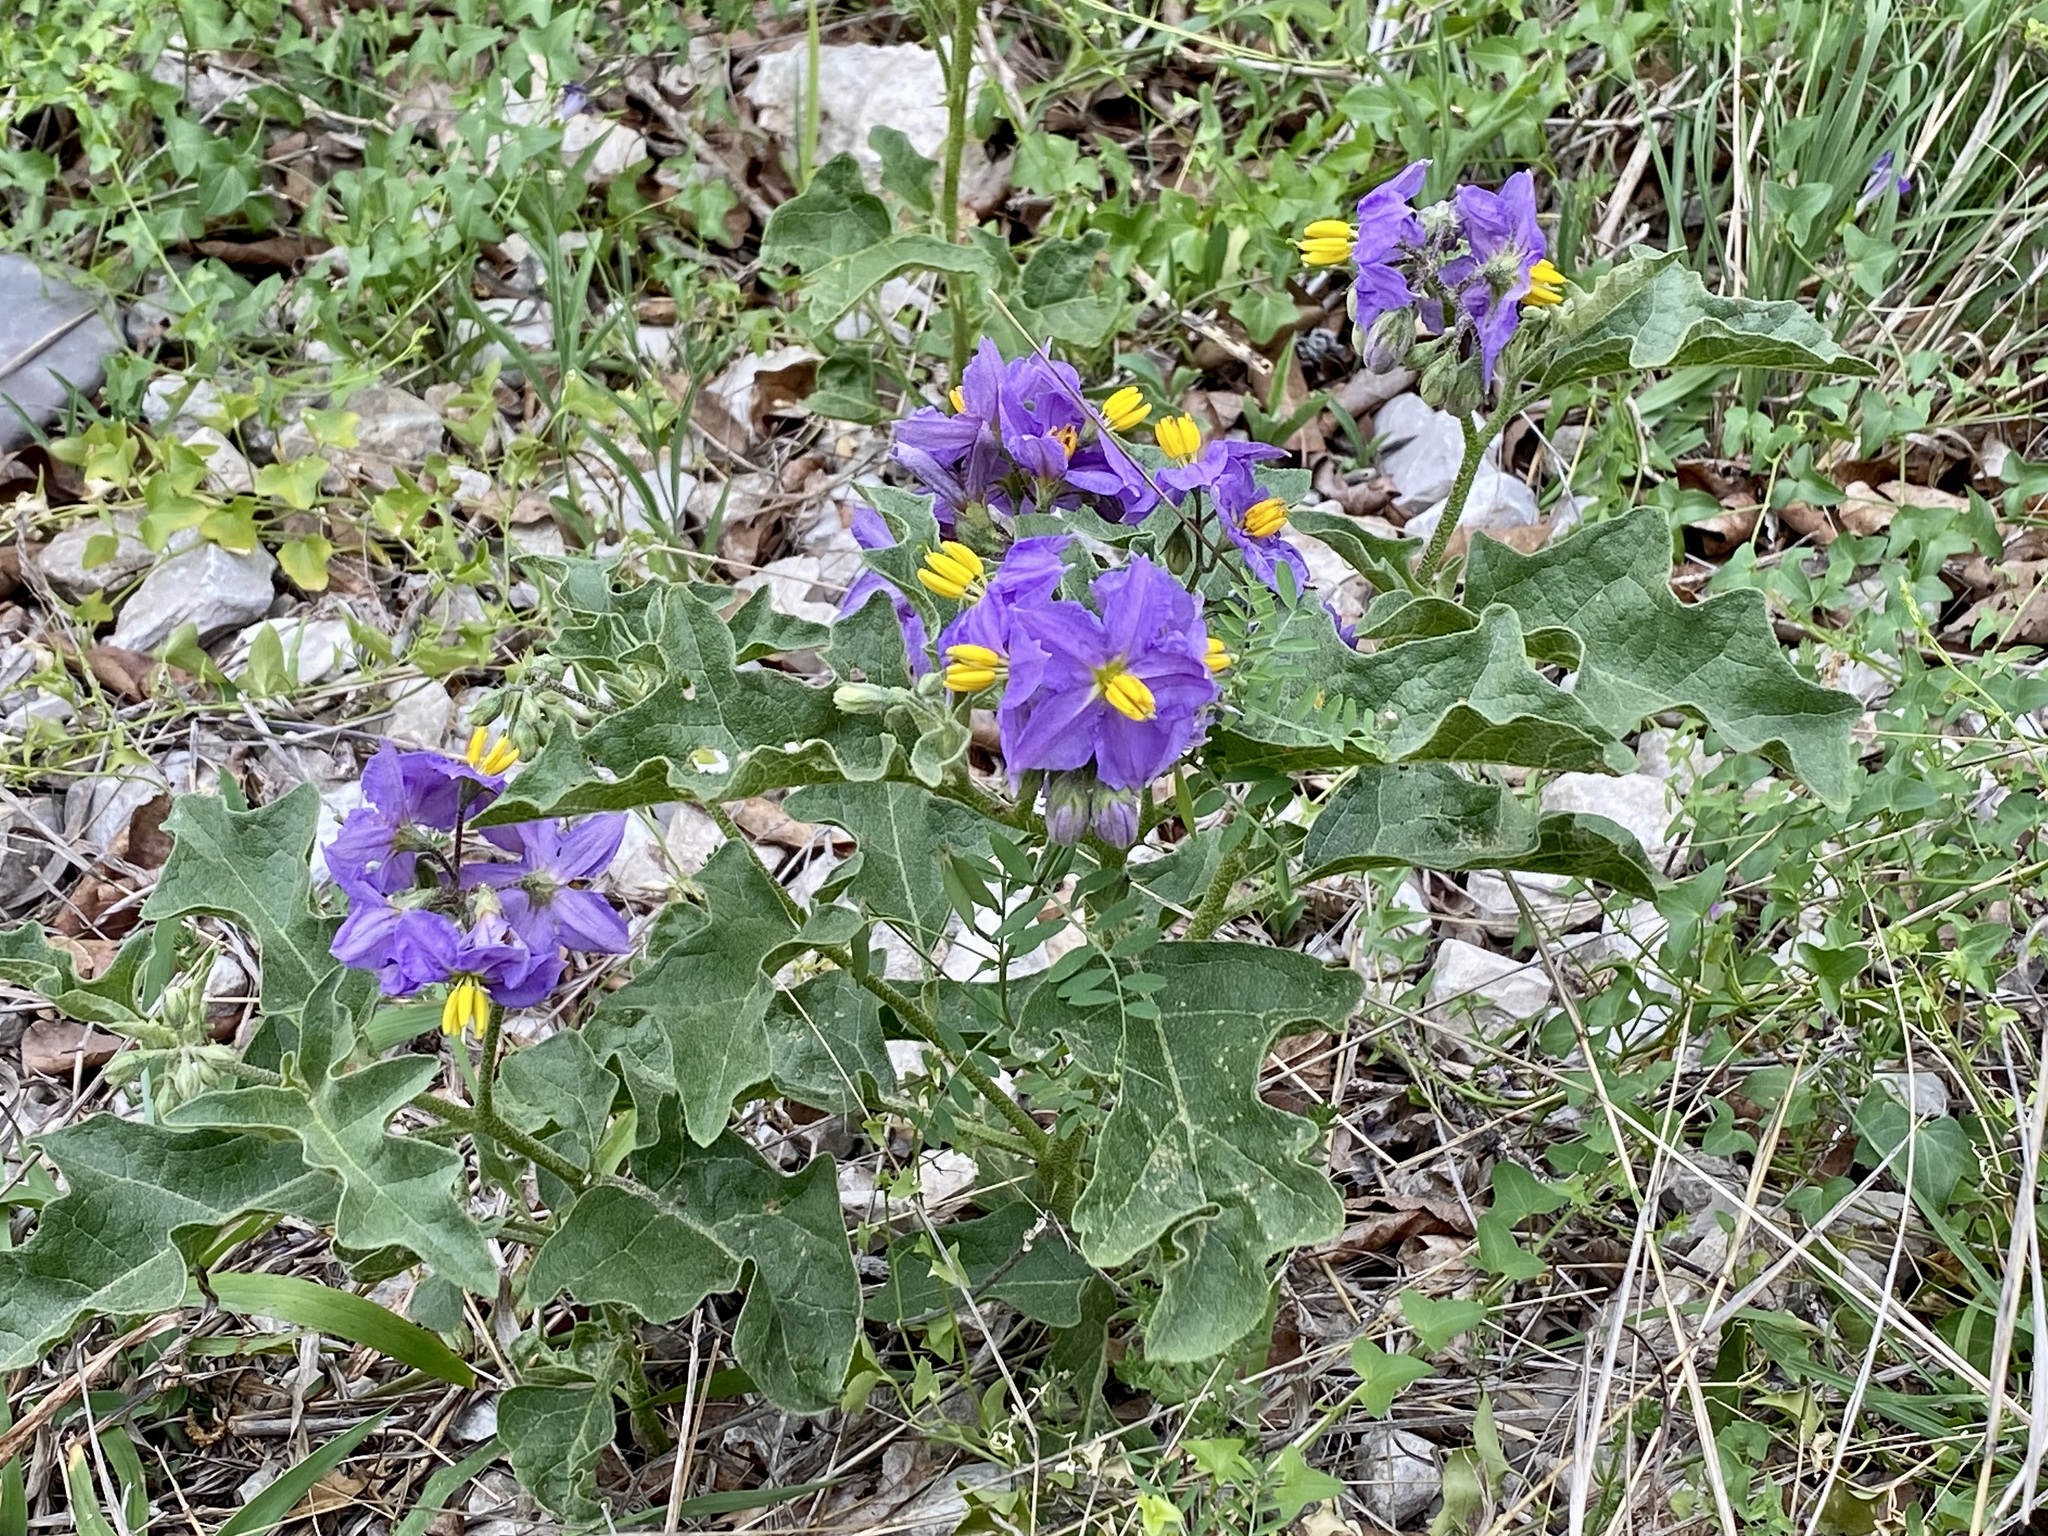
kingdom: Plantae
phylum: Tracheophyta
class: Magnoliopsida
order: Solanales
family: Solanaceae
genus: Solanum
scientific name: Solanum dimidiatum
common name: Carolina horse-nettle
